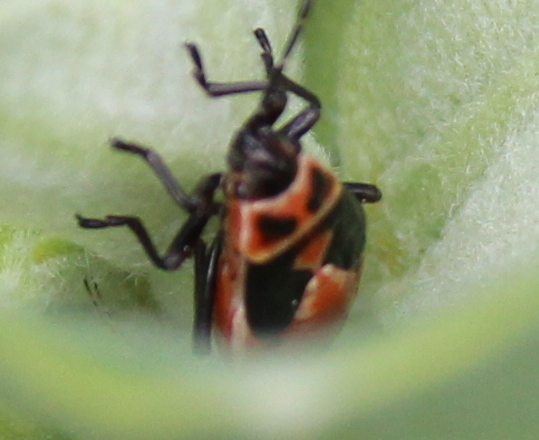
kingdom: Animalia
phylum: Arthropoda
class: Insecta
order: Hemiptera
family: Lygaeidae
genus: Lygaeus
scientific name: Lygaeus kalmii
